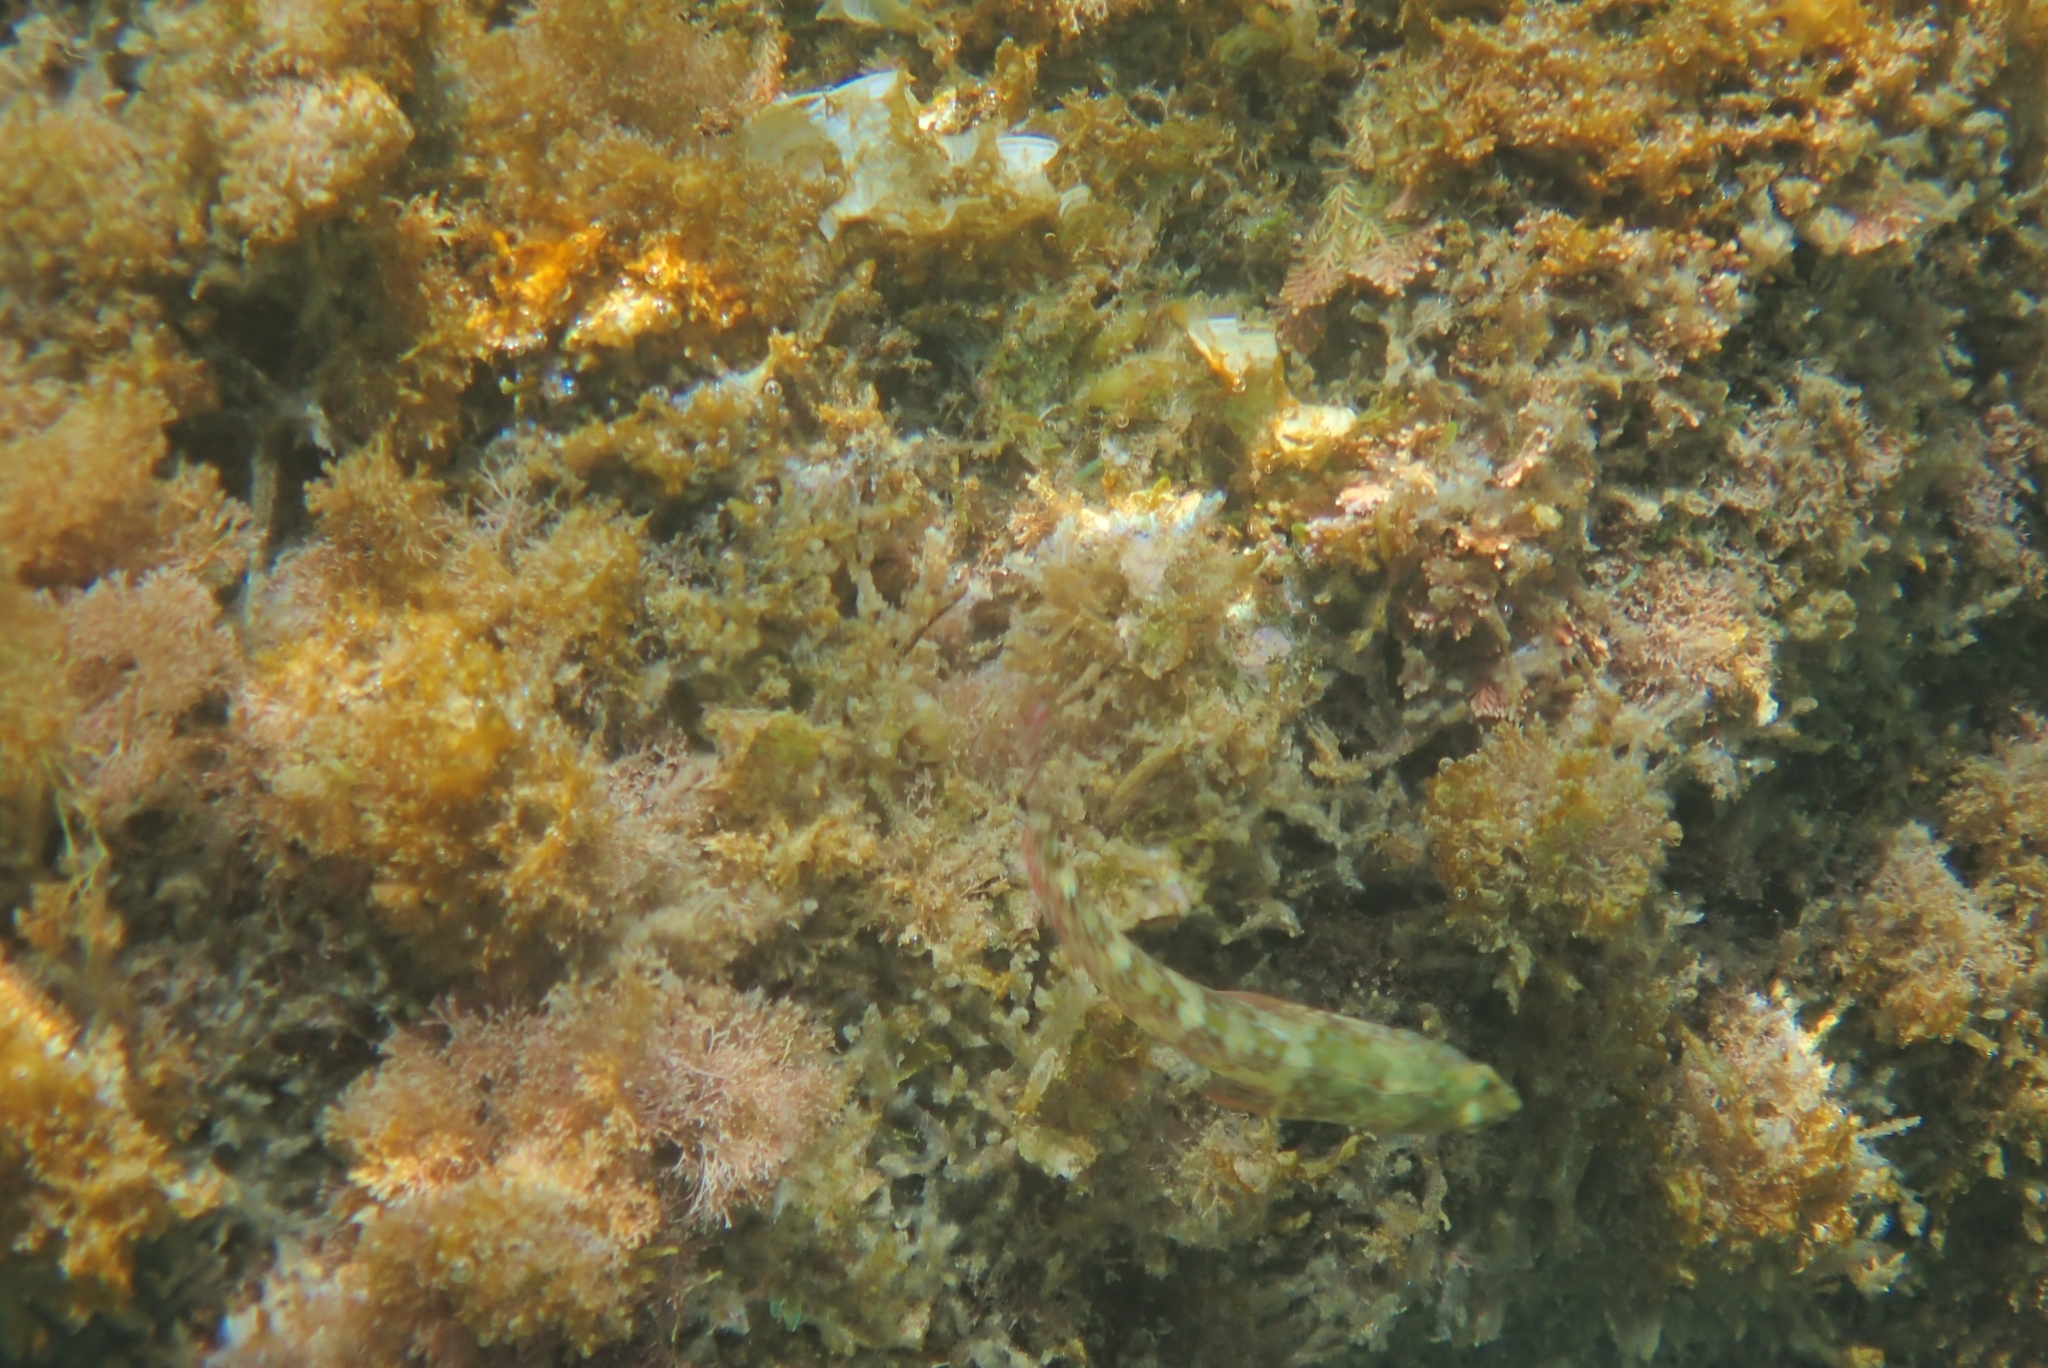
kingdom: Animalia
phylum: Chordata
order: Perciformes
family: Tripterygiidae
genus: Tripterygion
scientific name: Tripterygion tripteronotum
